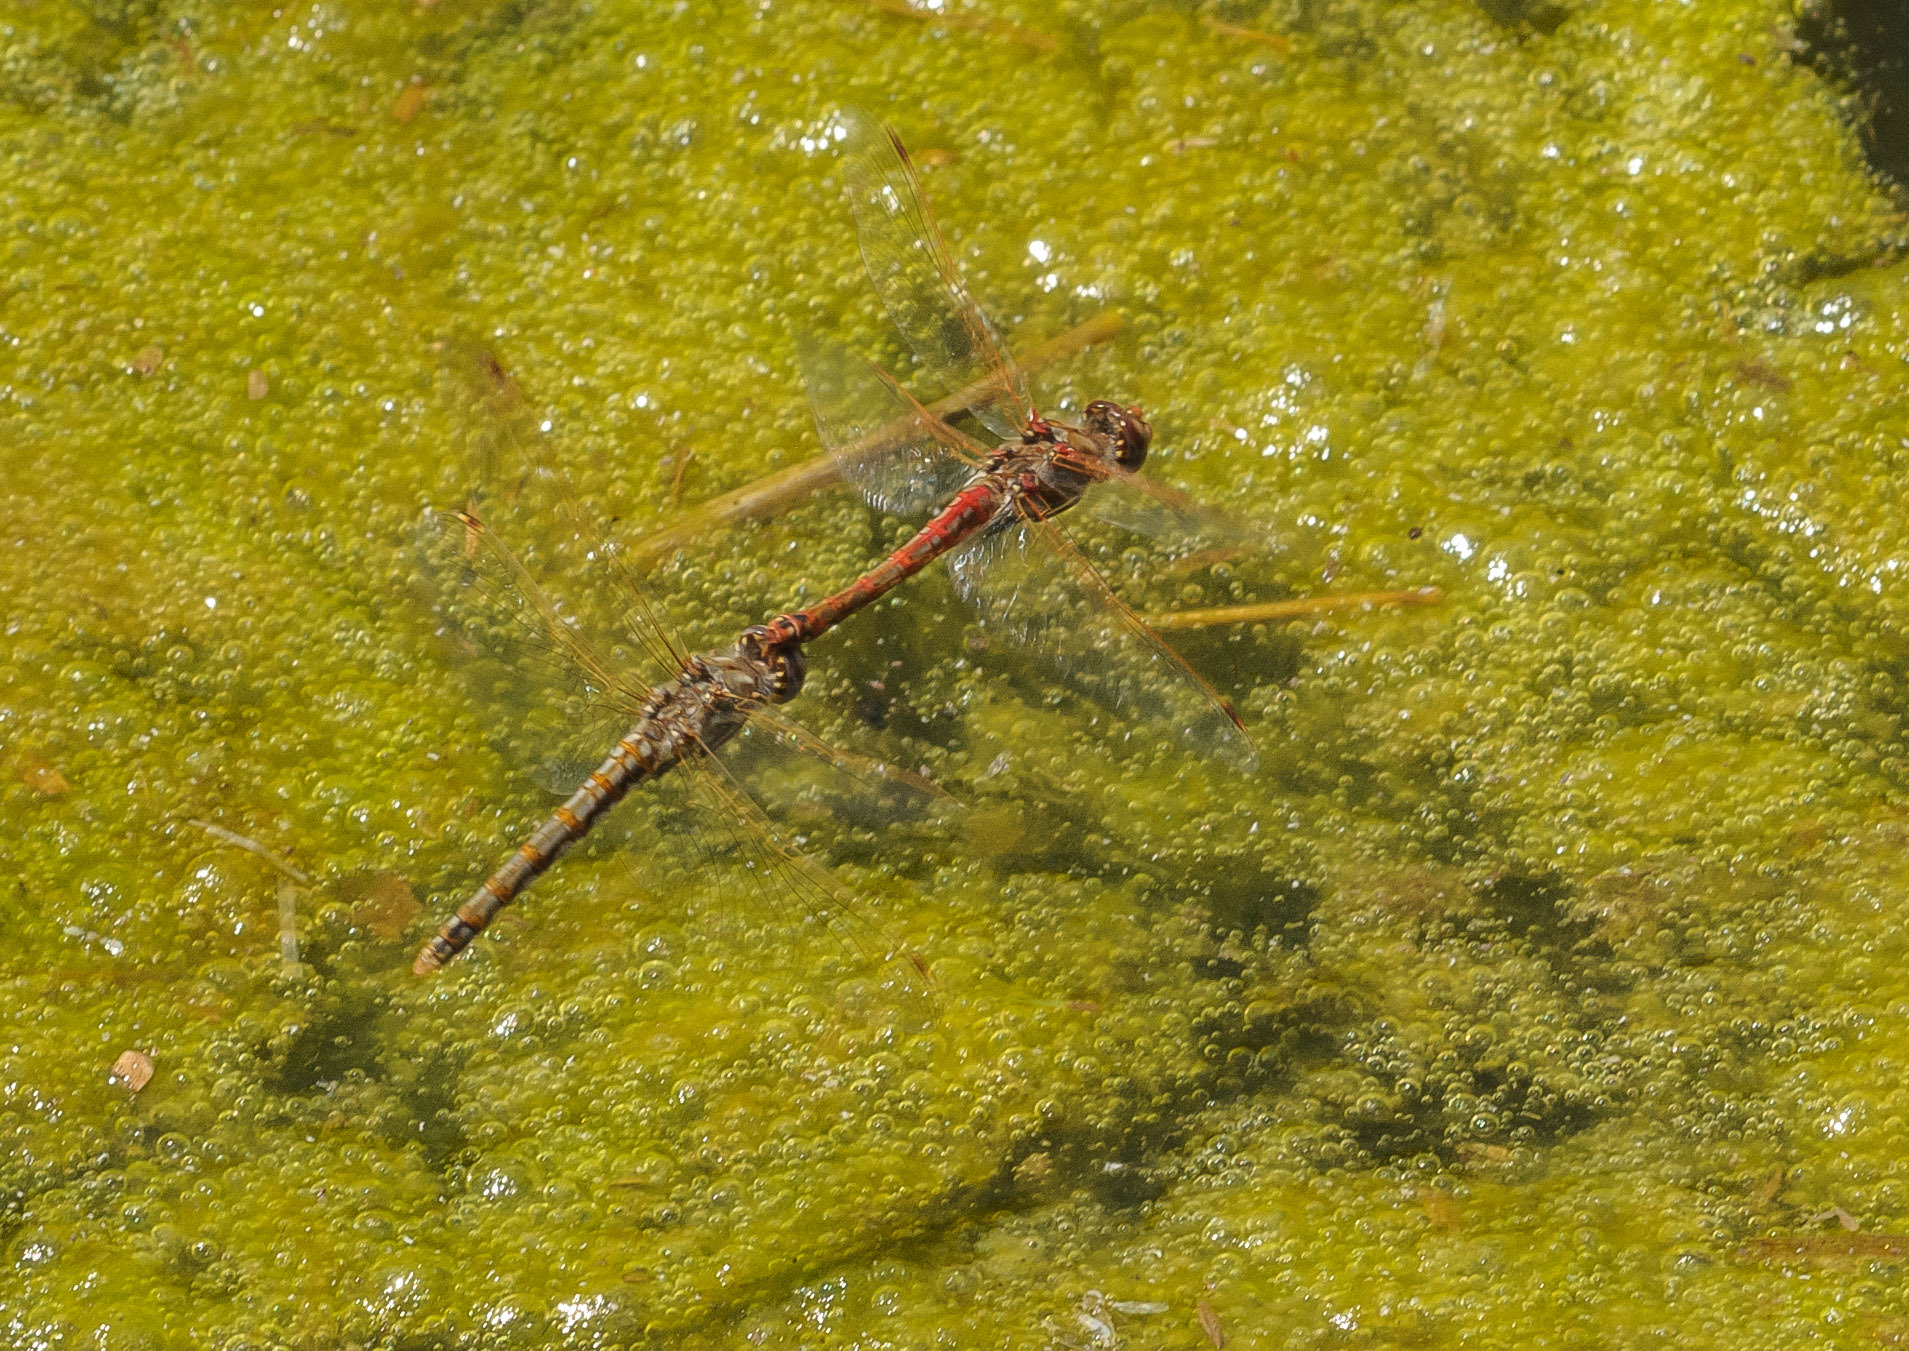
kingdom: Animalia
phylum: Arthropoda
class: Insecta
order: Odonata
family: Libellulidae
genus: Sympetrum
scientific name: Sympetrum corruptum
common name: Variegated meadowhawk
